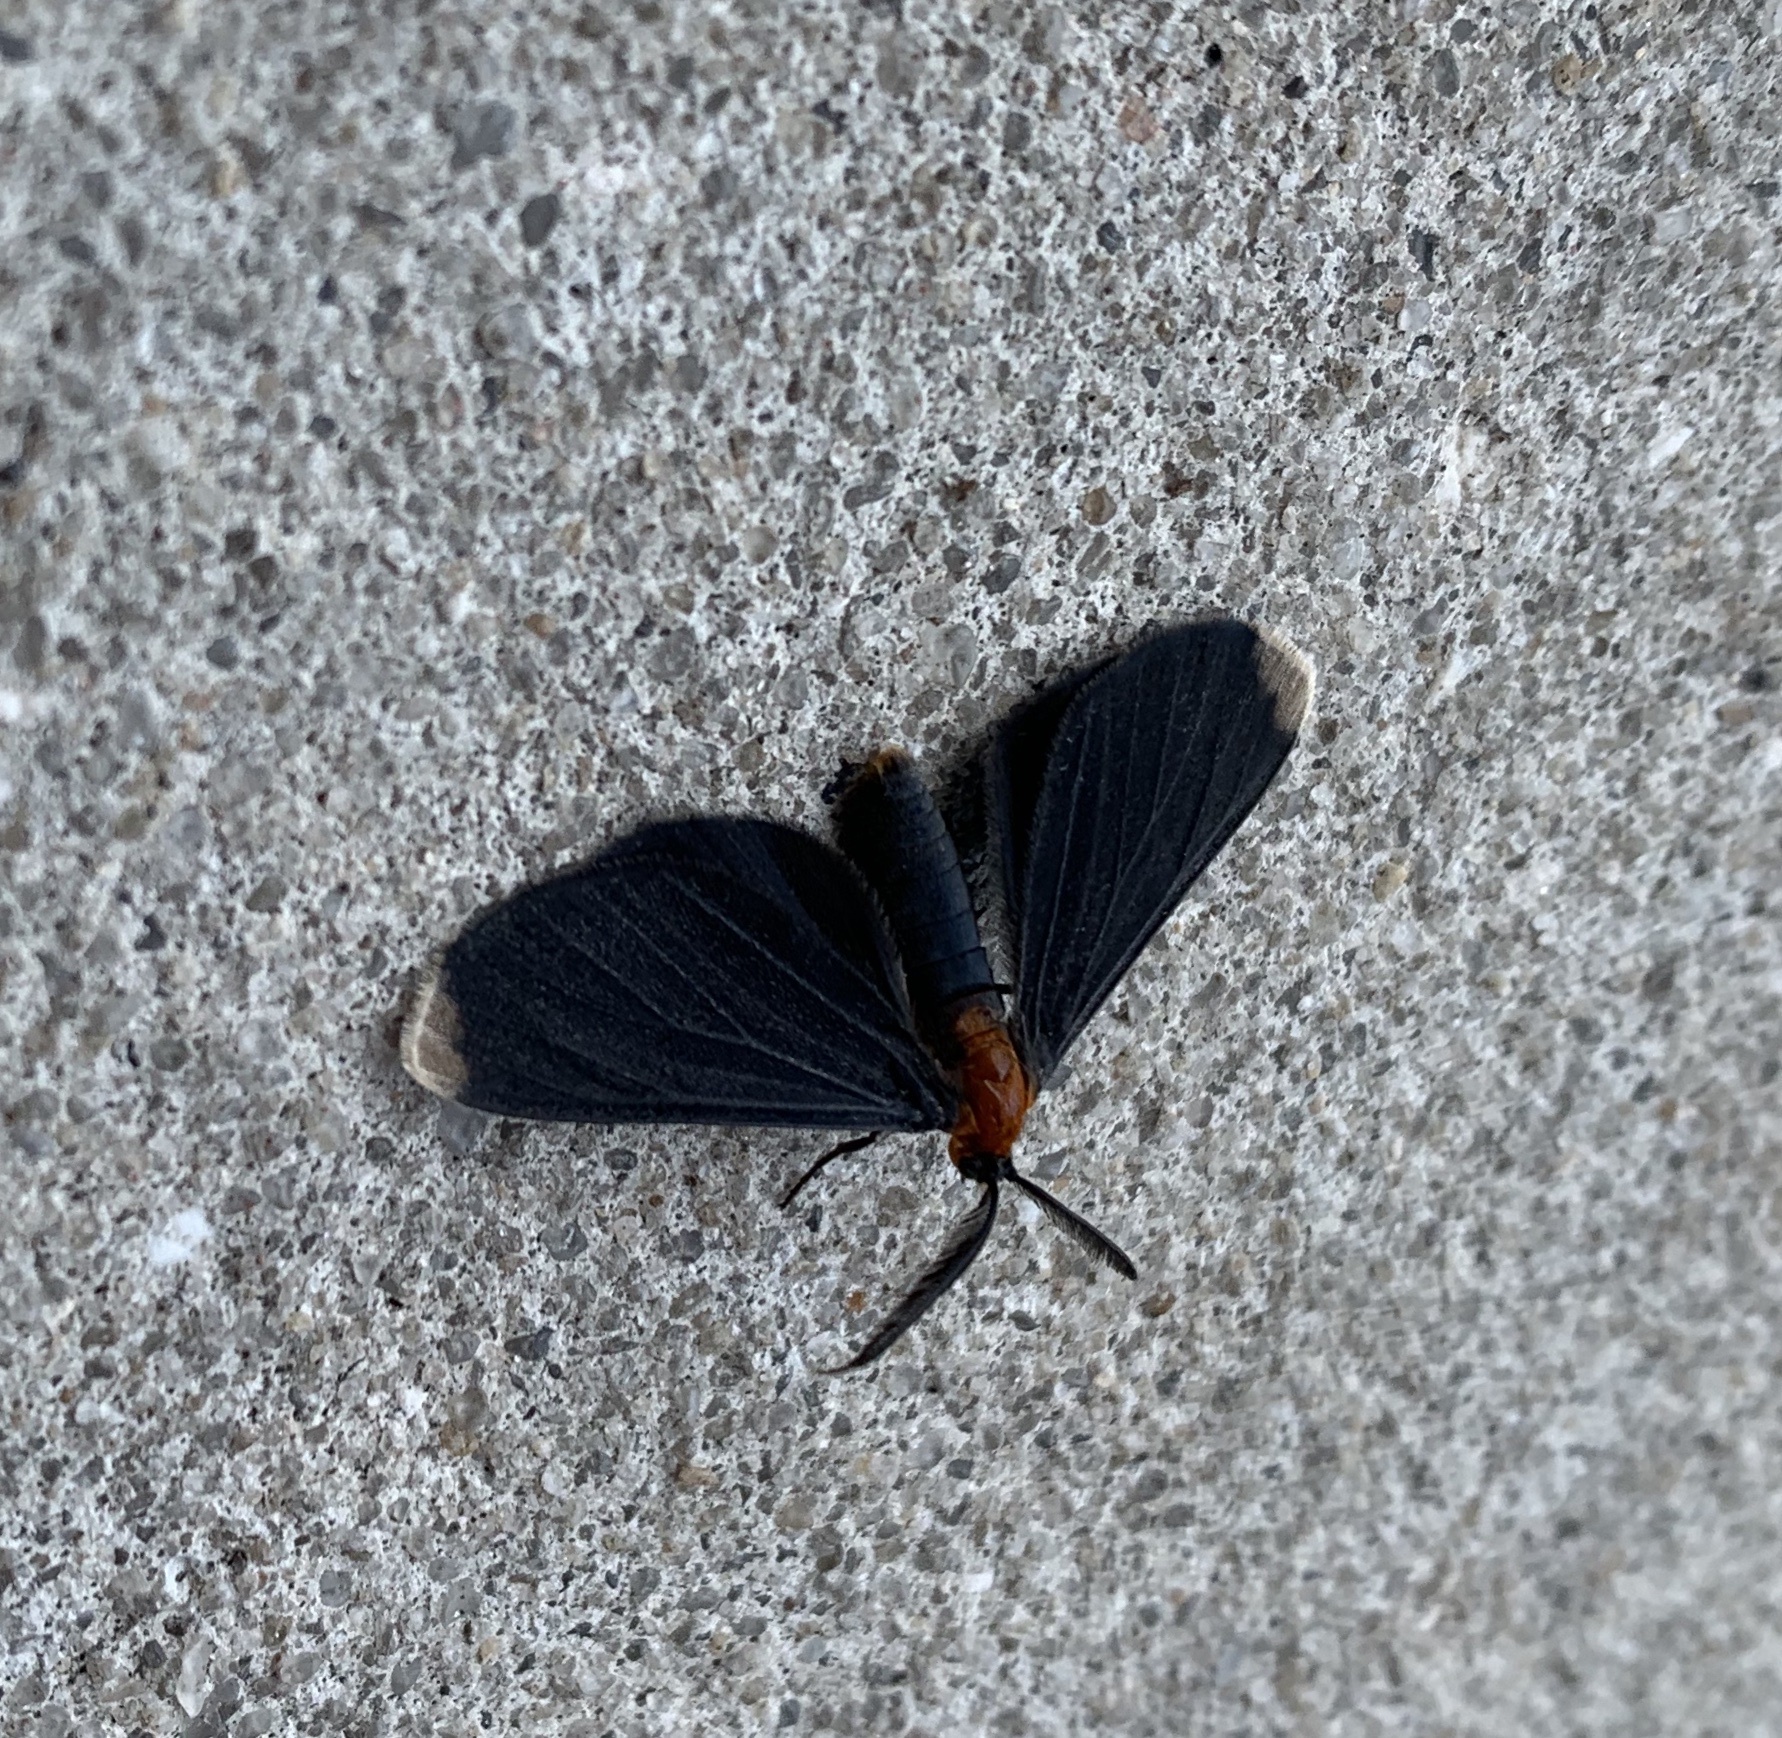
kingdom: Animalia
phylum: Arthropoda
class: Insecta
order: Lepidoptera
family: Geometridae
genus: Melanchroia
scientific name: Melanchroia chephise
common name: White-tipped black
